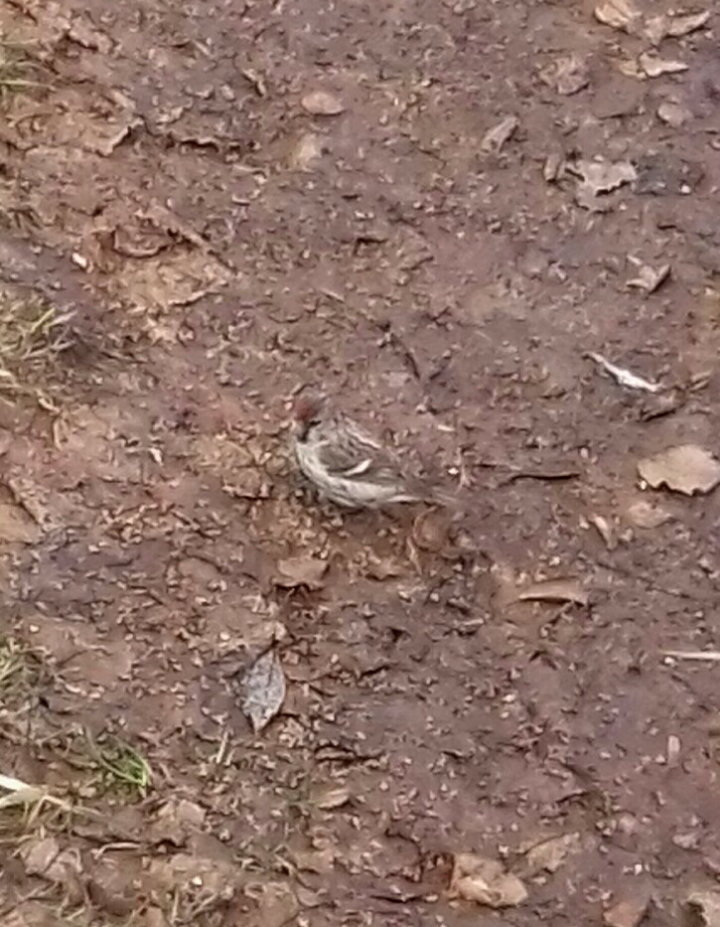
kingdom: Animalia
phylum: Chordata
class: Aves
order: Passeriformes
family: Fringillidae
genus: Acanthis
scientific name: Acanthis flammea
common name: Common redpoll
